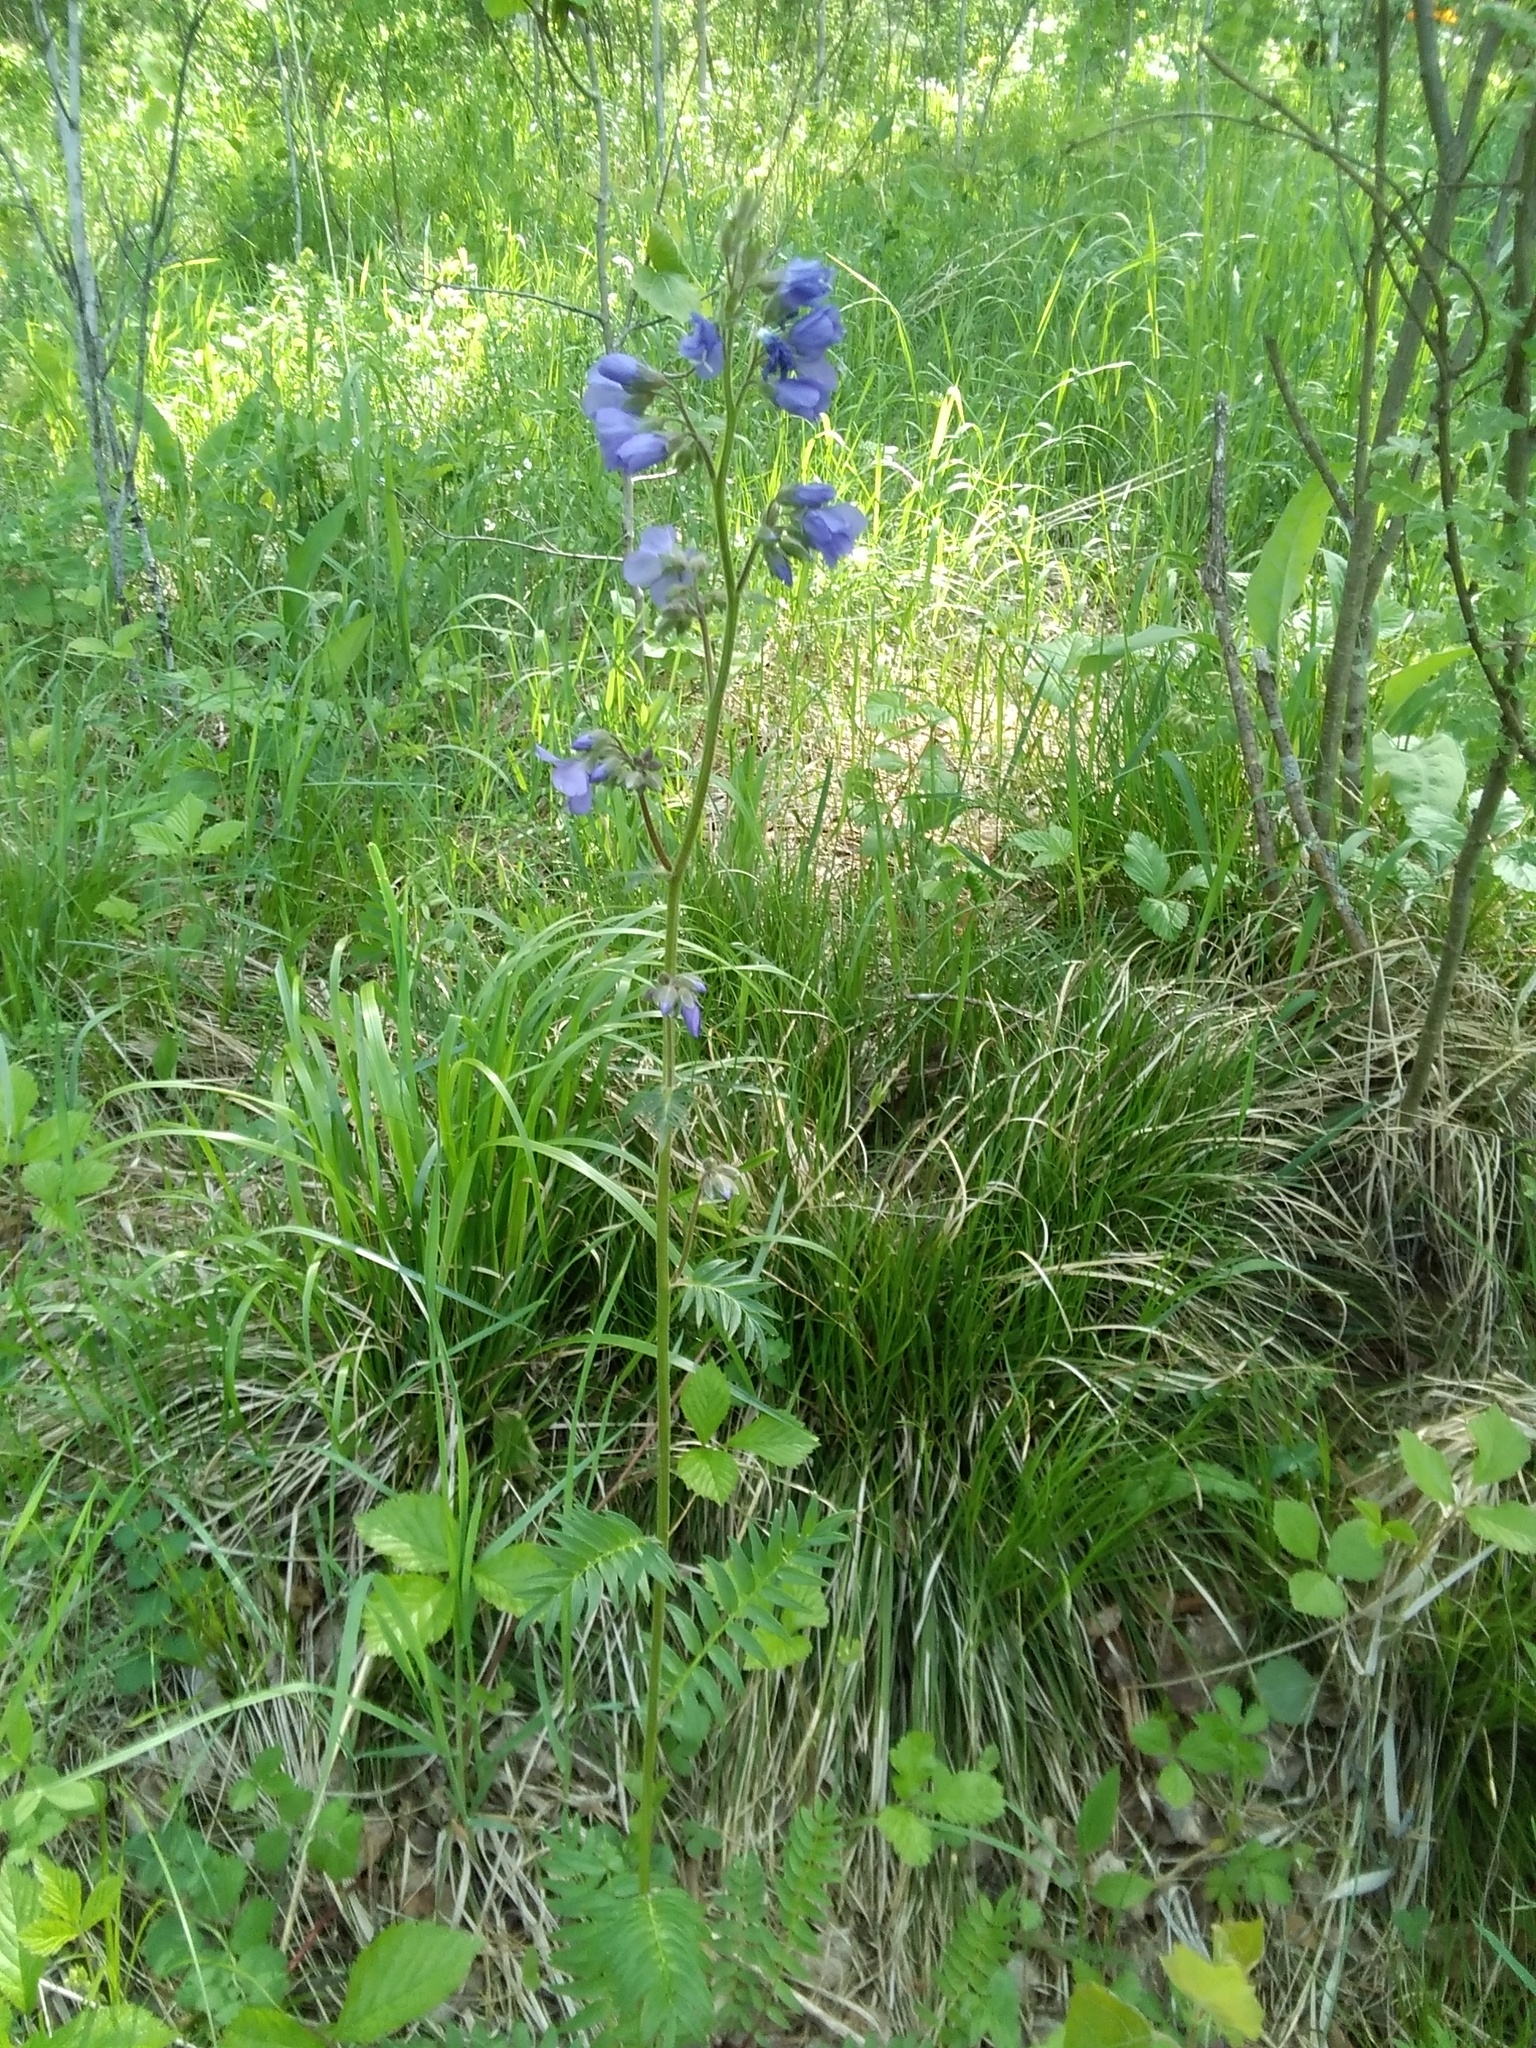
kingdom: Plantae
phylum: Tracheophyta
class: Magnoliopsida
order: Ericales
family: Polemoniaceae
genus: Polemonium
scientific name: Polemonium caeruleum
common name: Jacob's-ladder
